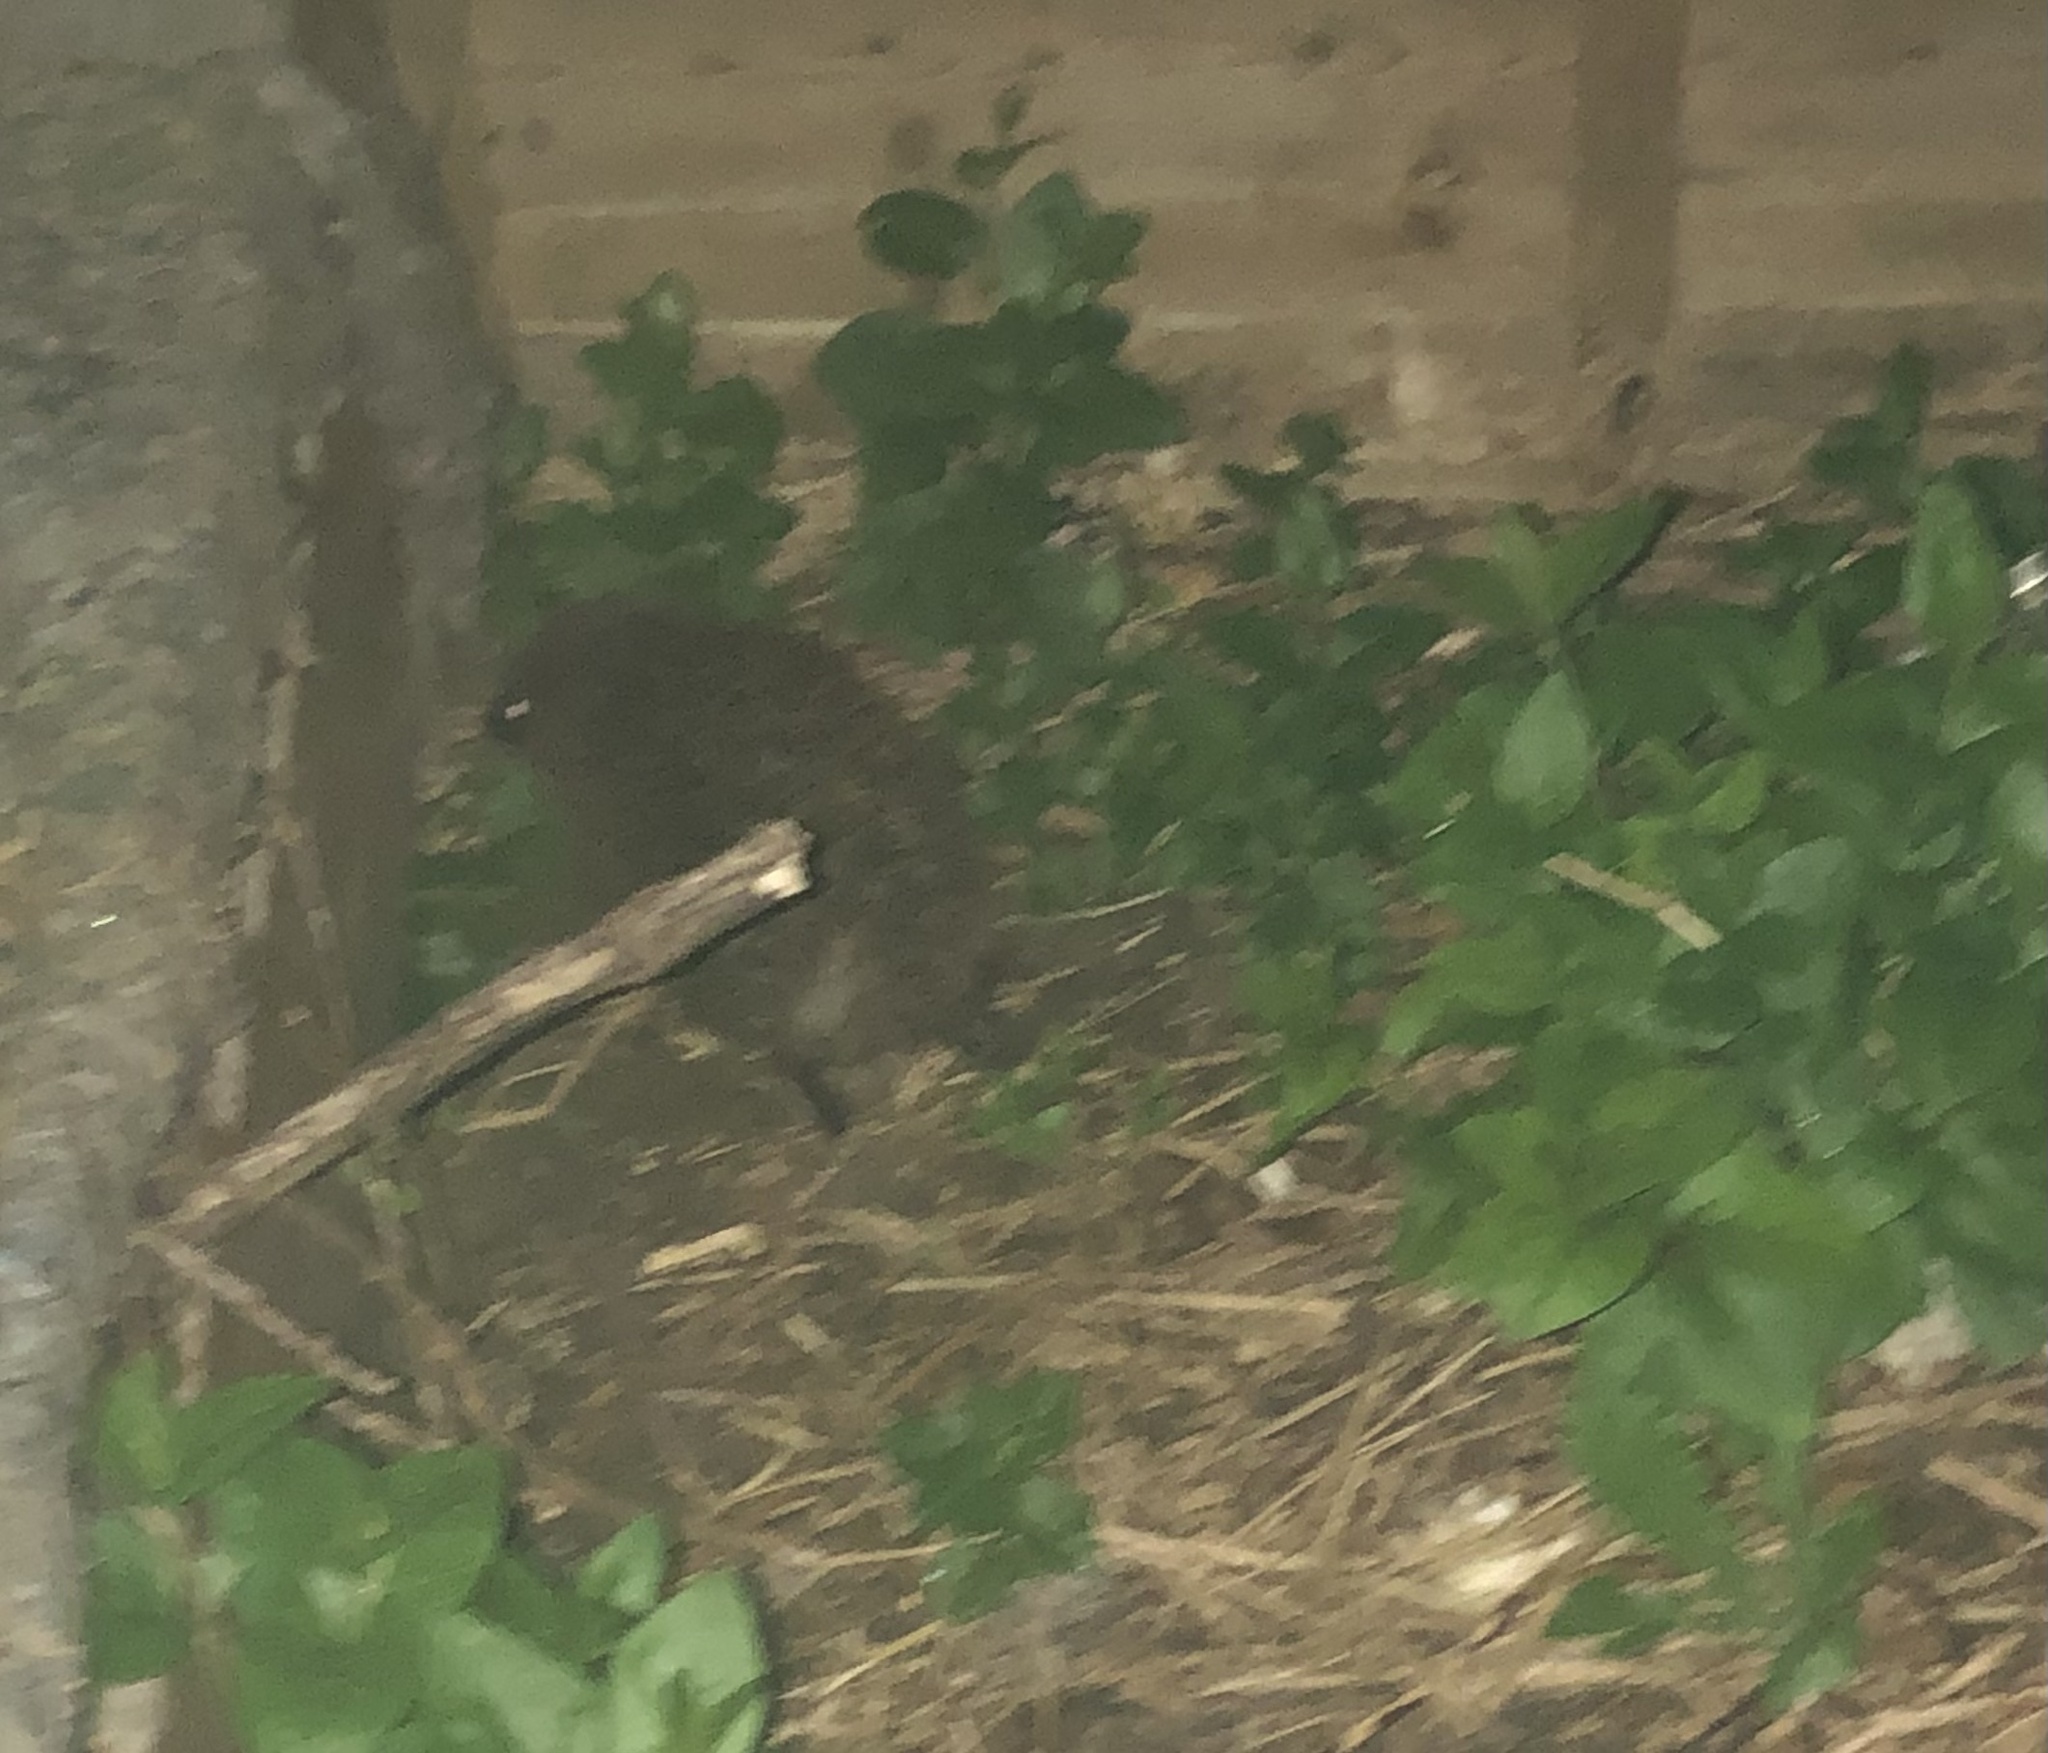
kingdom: Animalia
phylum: Chordata
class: Mammalia
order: Erinaceomorpha
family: Erinaceidae
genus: Erinaceus
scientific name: Erinaceus europaeus
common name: West european hedgehog
